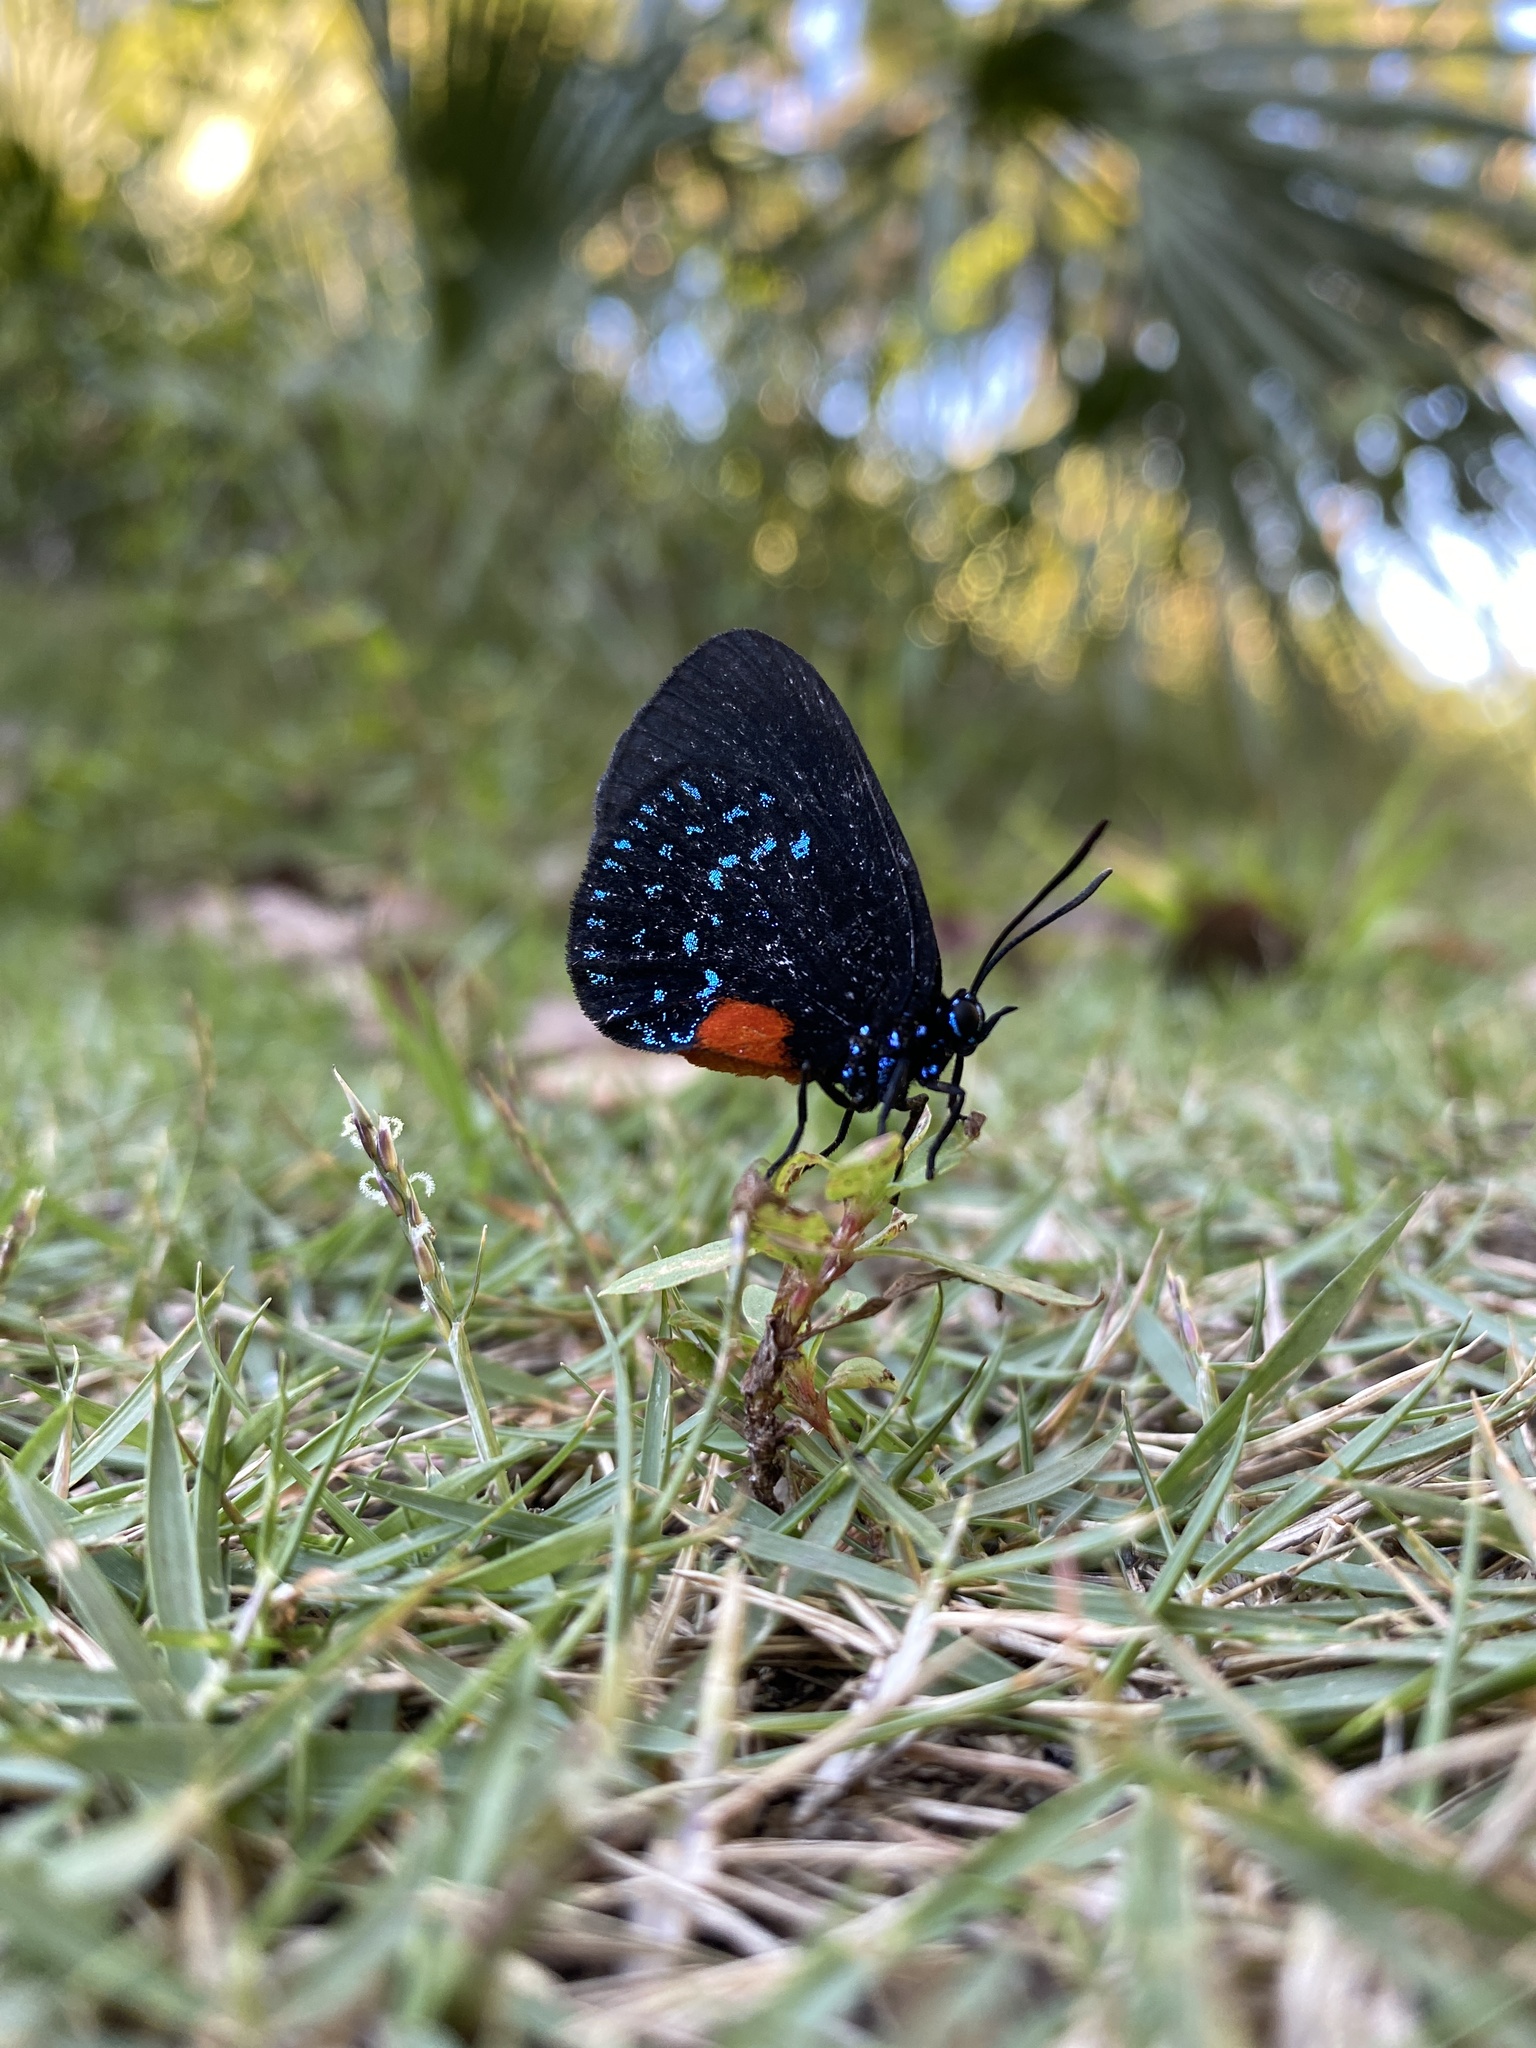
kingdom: Animalia
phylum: Arthropoda
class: Insecta
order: Lepidoptera
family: Lycaenidae
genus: Eumaeus
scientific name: Eumaeus atala
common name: Atala
